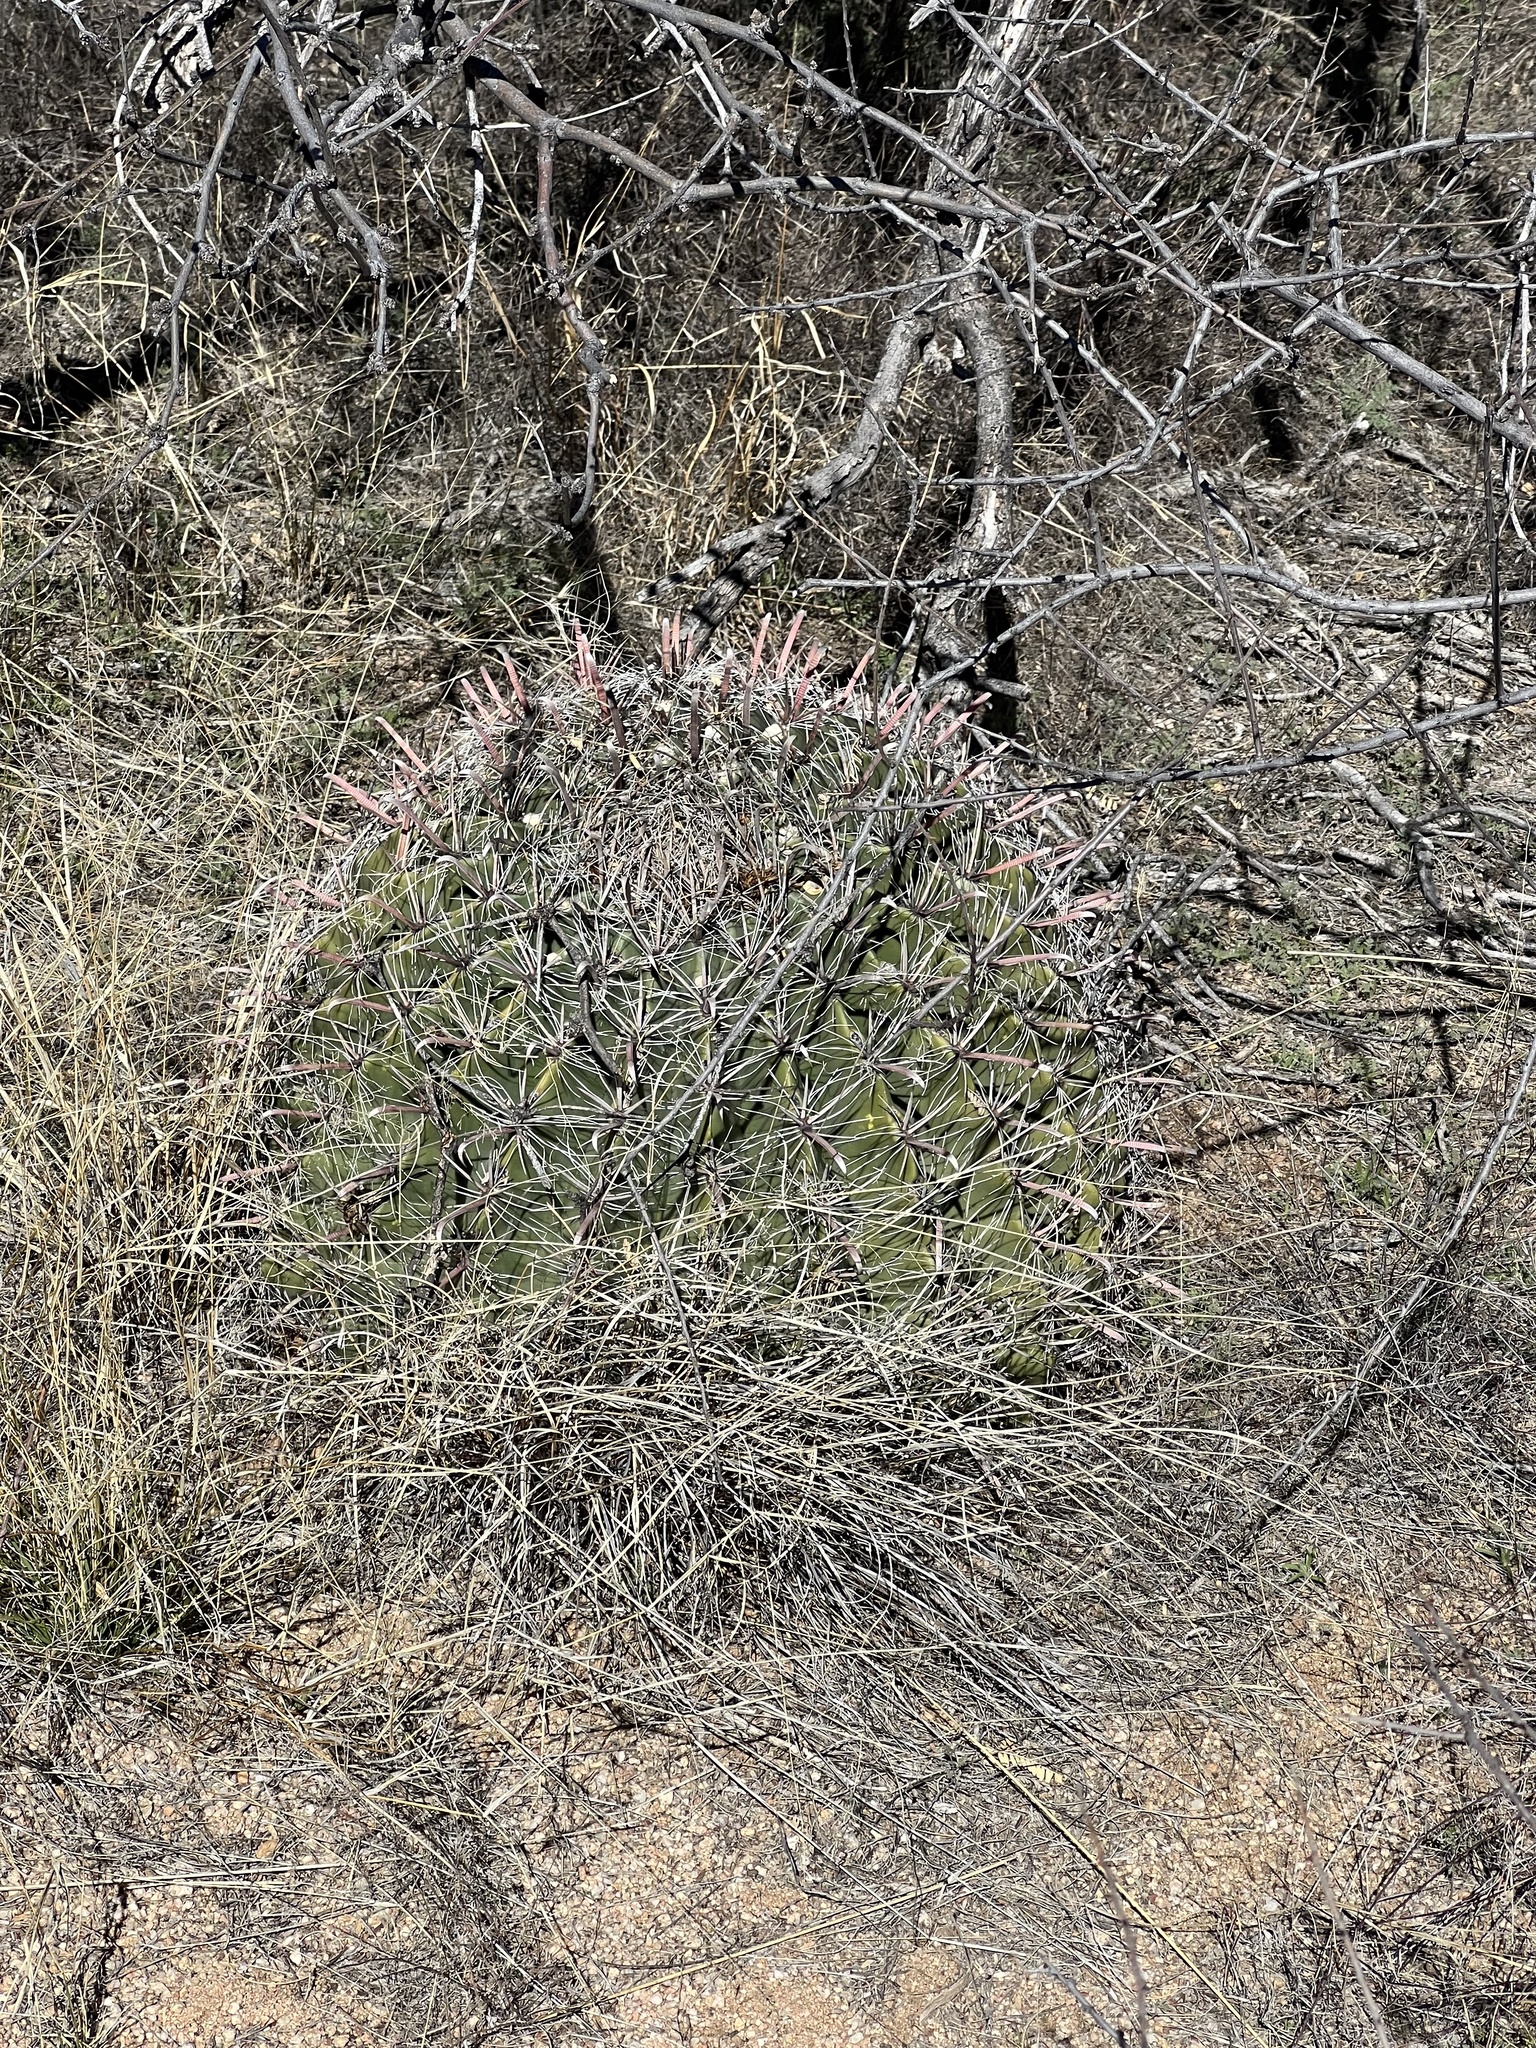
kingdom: Plantae
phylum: Tracheophyta
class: Magnoliopsida
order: Caryophyllales
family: Cactaceae
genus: Ferocactus
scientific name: Ferocactus wislizeni
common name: Candy barrel cactus
